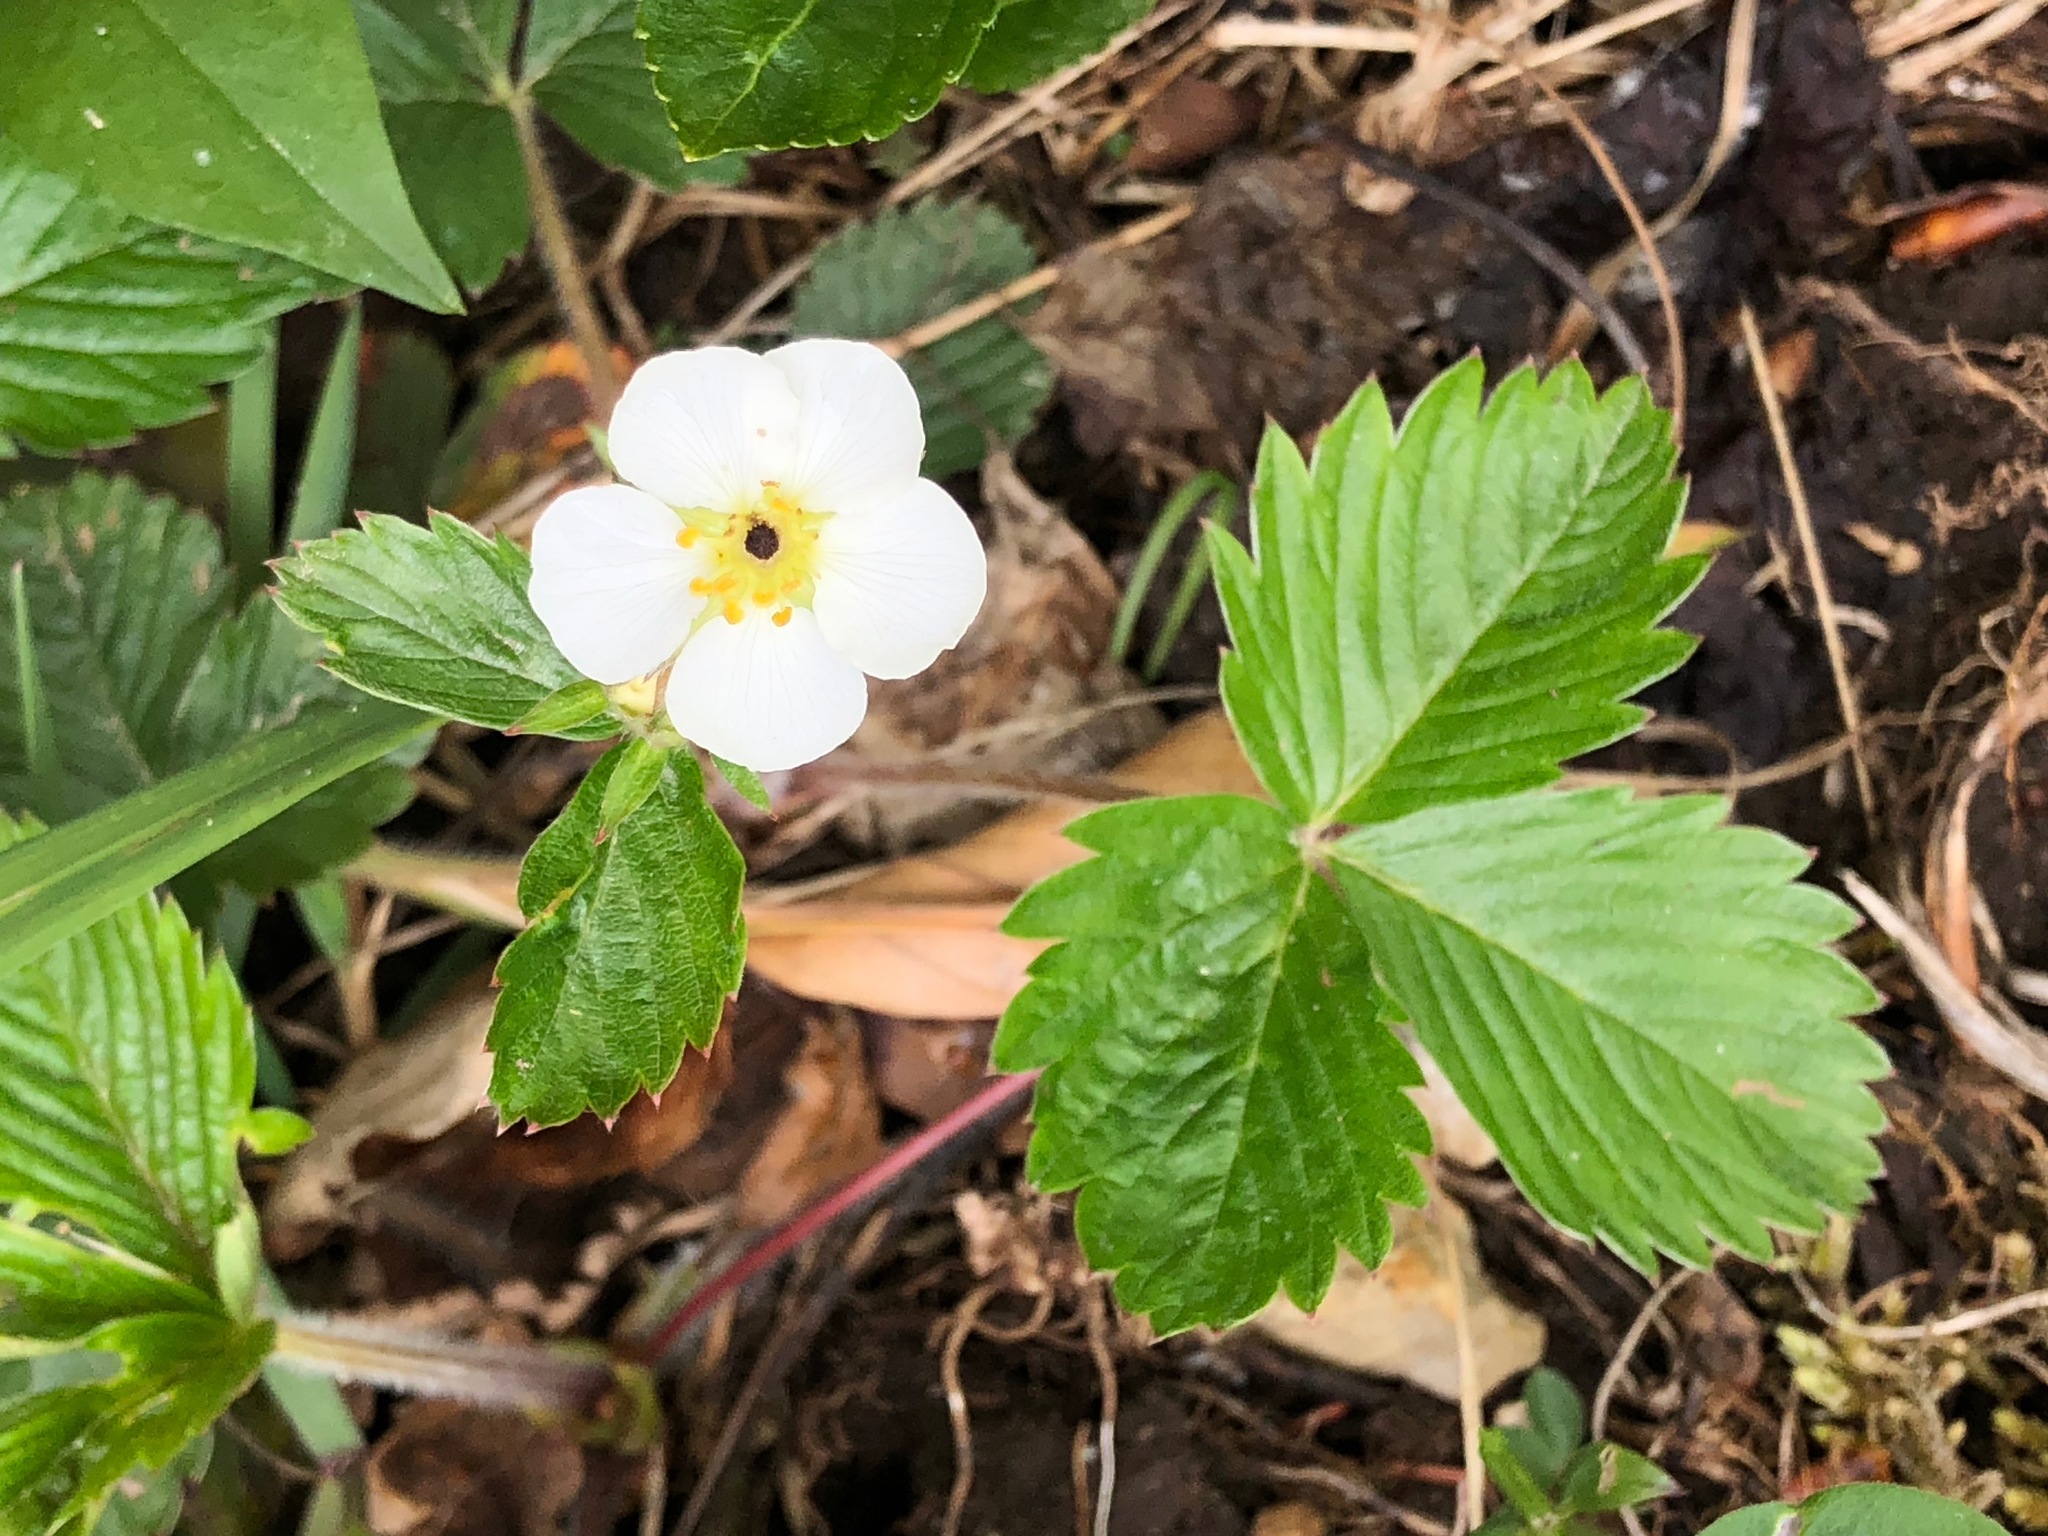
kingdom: Plantae
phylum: Tracheophyta
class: Magnoliopsida
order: Rosales
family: Rosaceae
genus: Fragaria
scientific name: Fragaria vesca
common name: Wild strawberry
